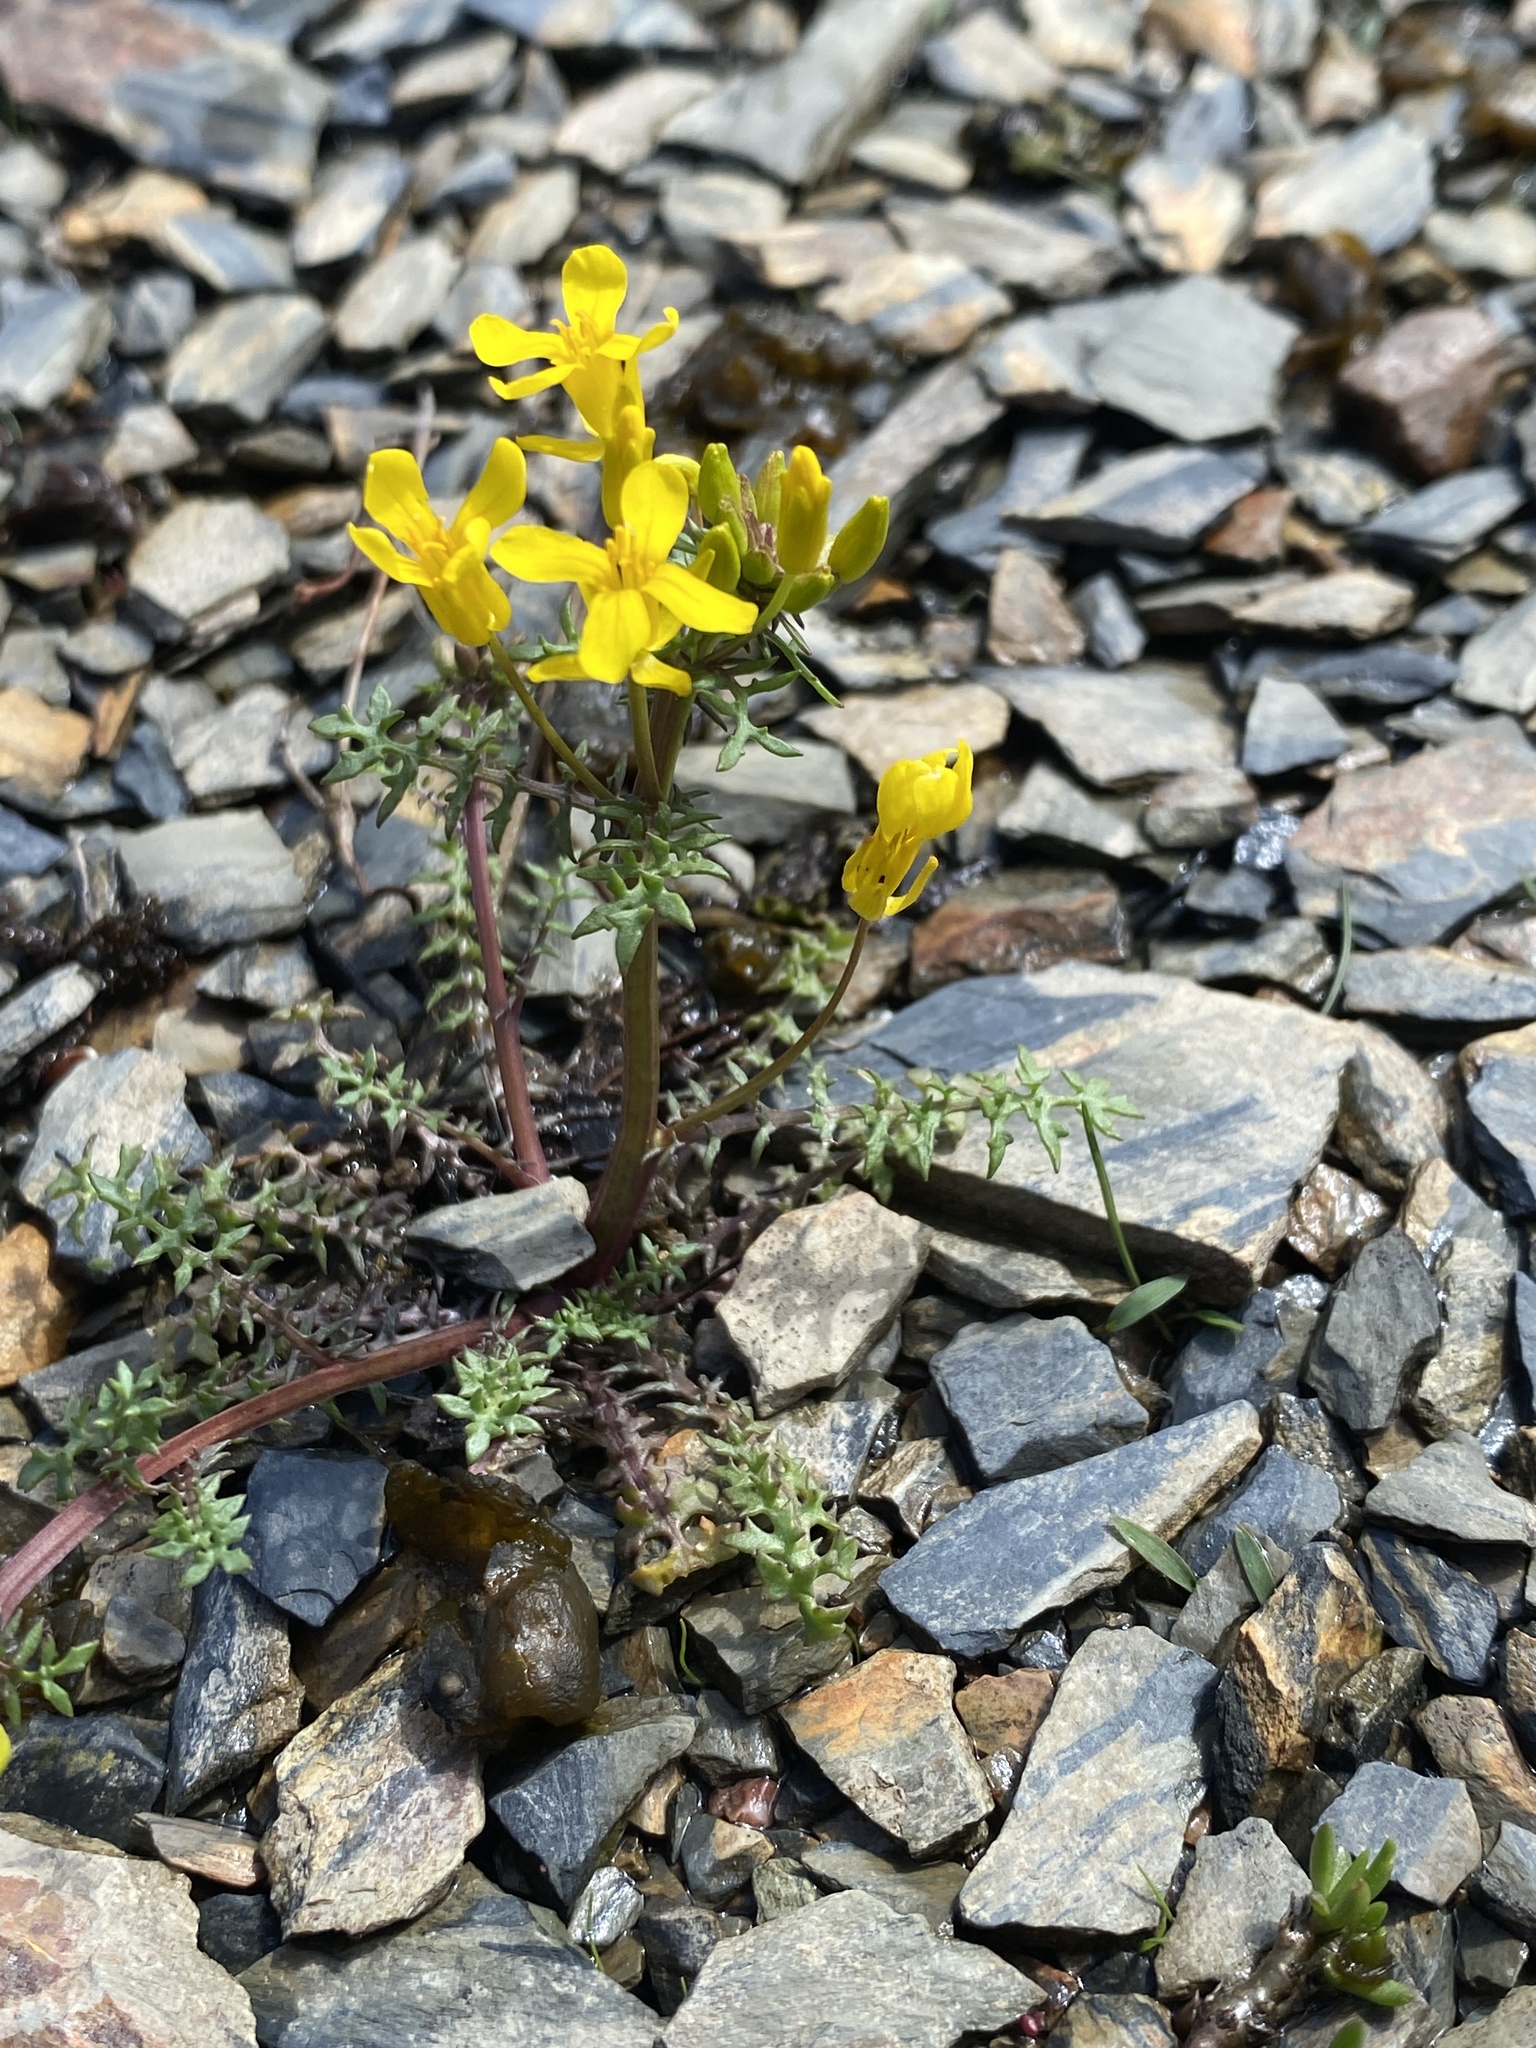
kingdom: Plantae
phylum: Tracheophyta
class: Magnoliopsida
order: Brassicales
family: Brassicaceae
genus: Selenia
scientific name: Selenia aurea
